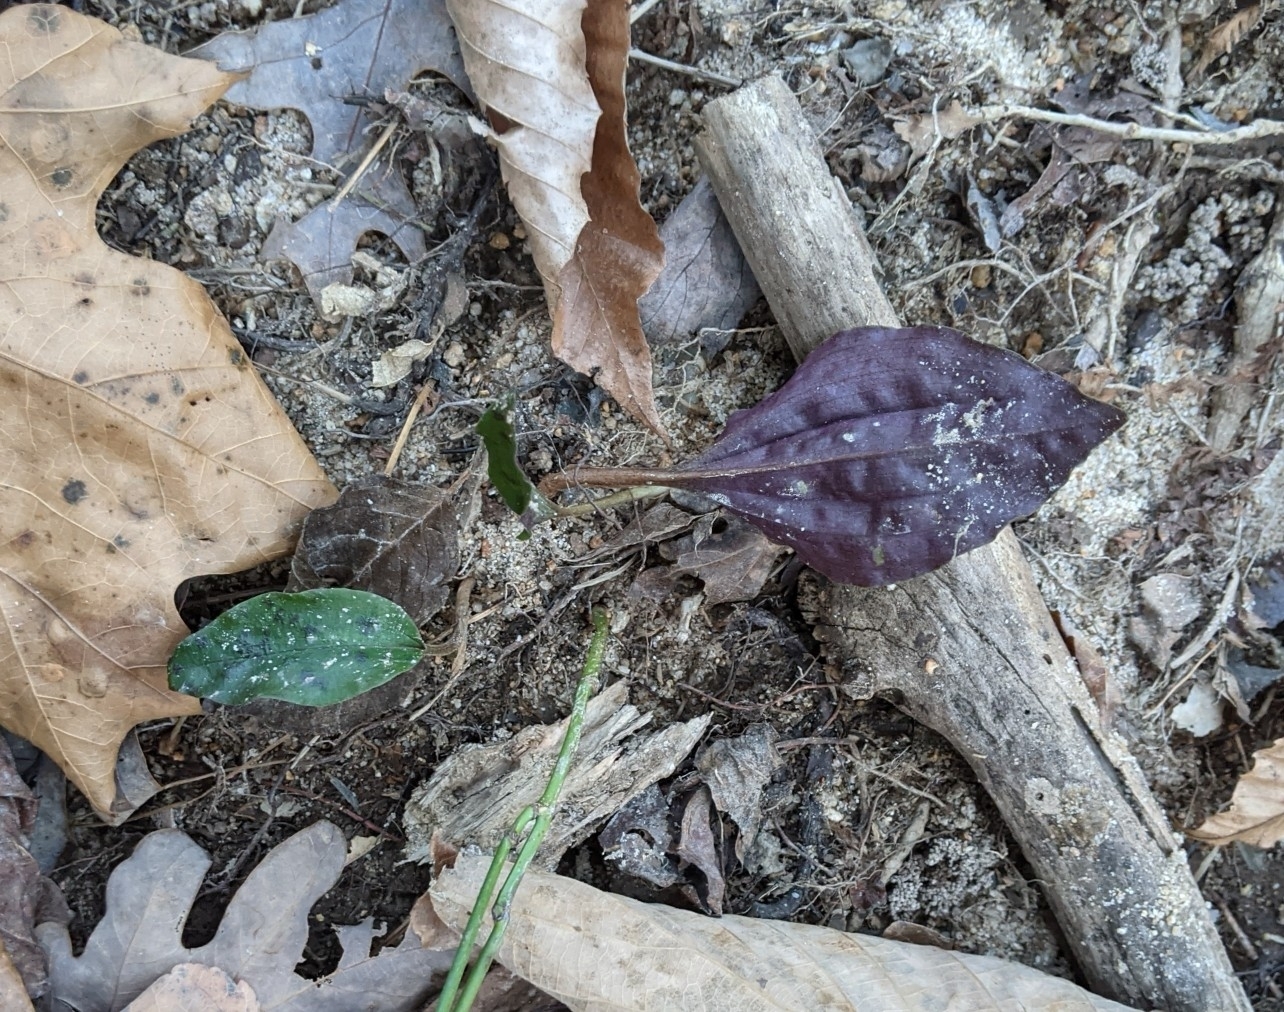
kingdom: Plantae
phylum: Tracheophyta
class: Liliopsida
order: Asparagales
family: Orchidaceae
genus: Tipularia
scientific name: Tipularia discolor
